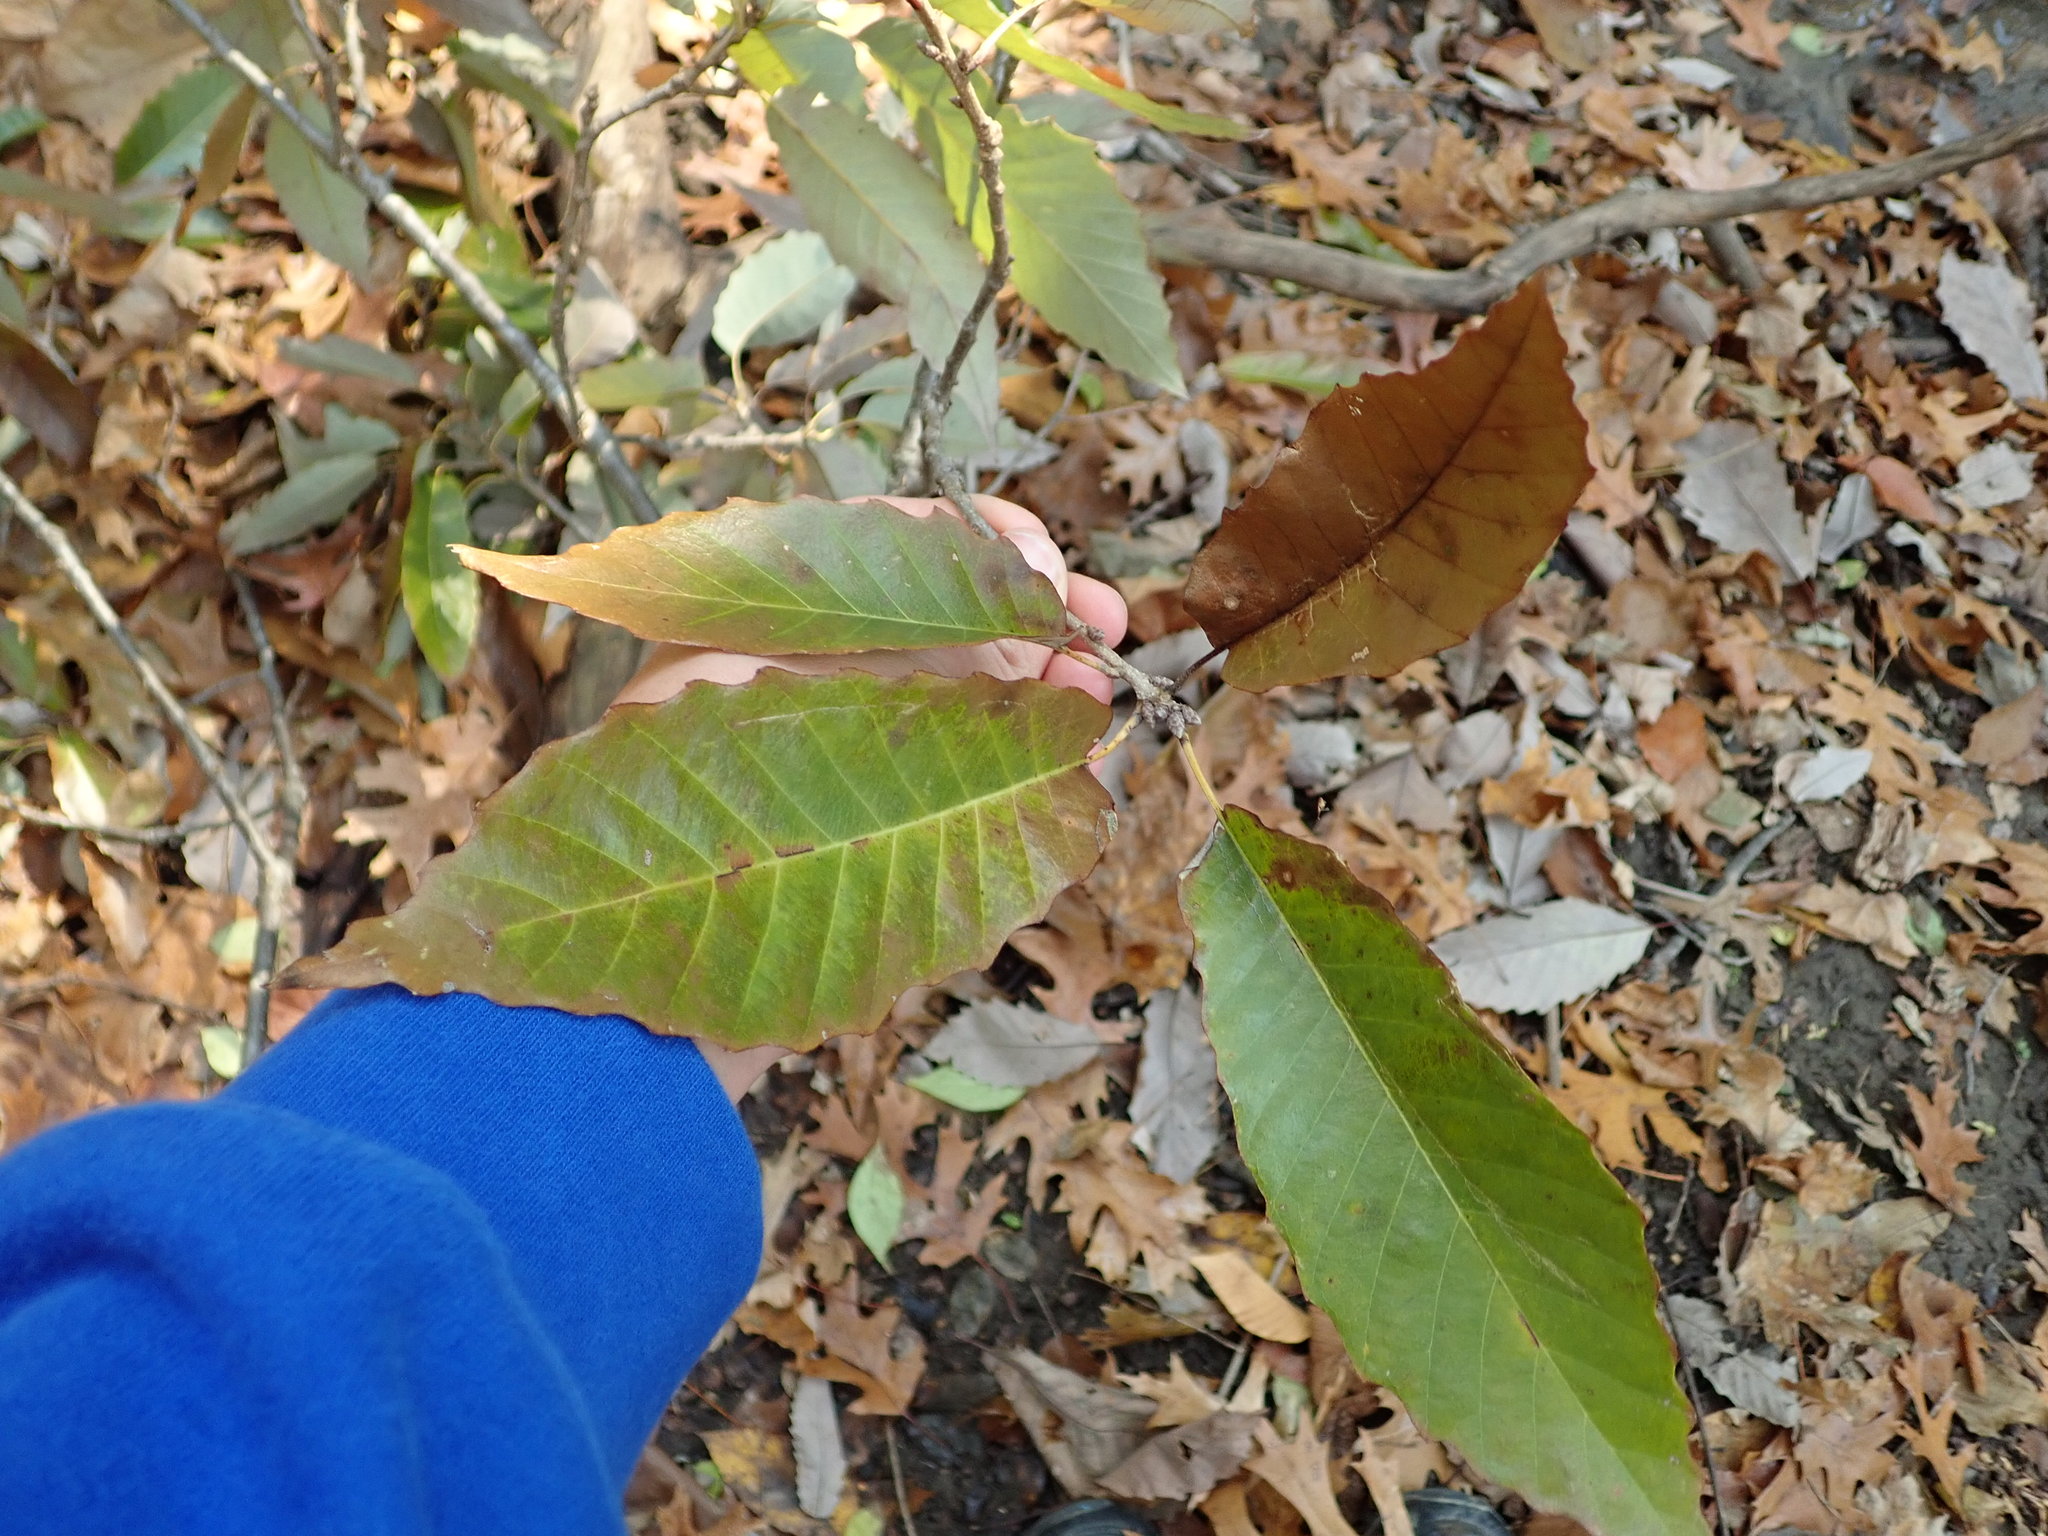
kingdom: Plantae
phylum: Tracheophyta
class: Magnoliopsida
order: Fagales
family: Fagaceae
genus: Quercus
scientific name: Quercus muehlenbergii
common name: Chinkapin oak
